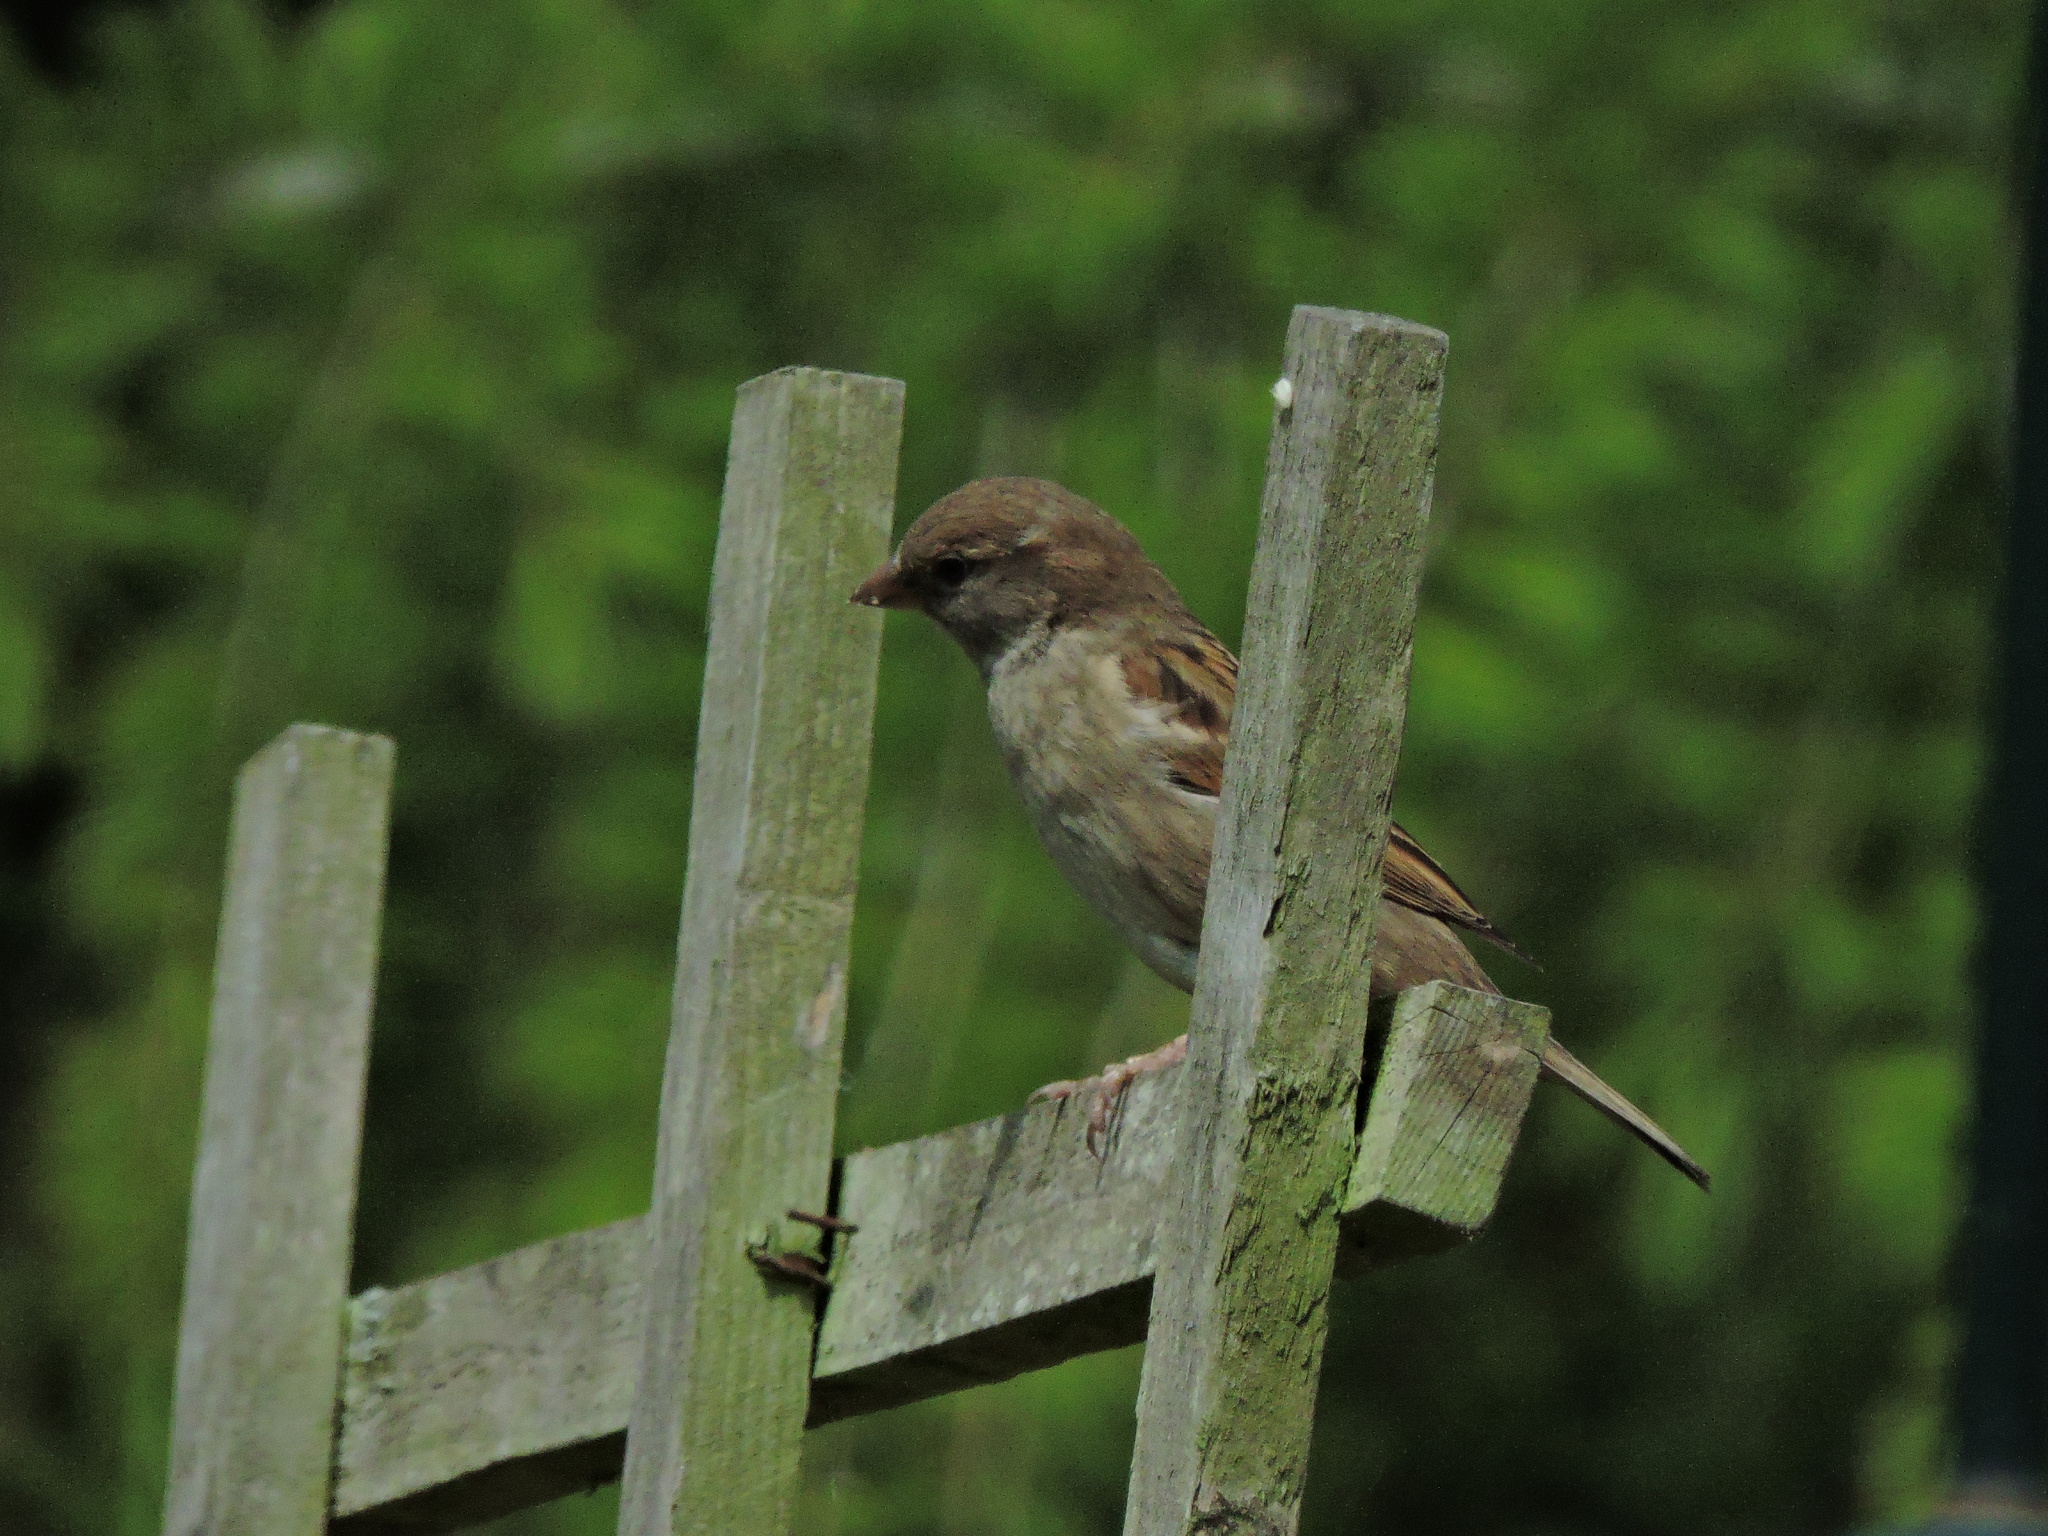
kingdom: Animalia
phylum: Chordata
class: Aves
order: Passeriformes
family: Passeridae
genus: Passer
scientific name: Passer domesticus
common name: House sparrow
